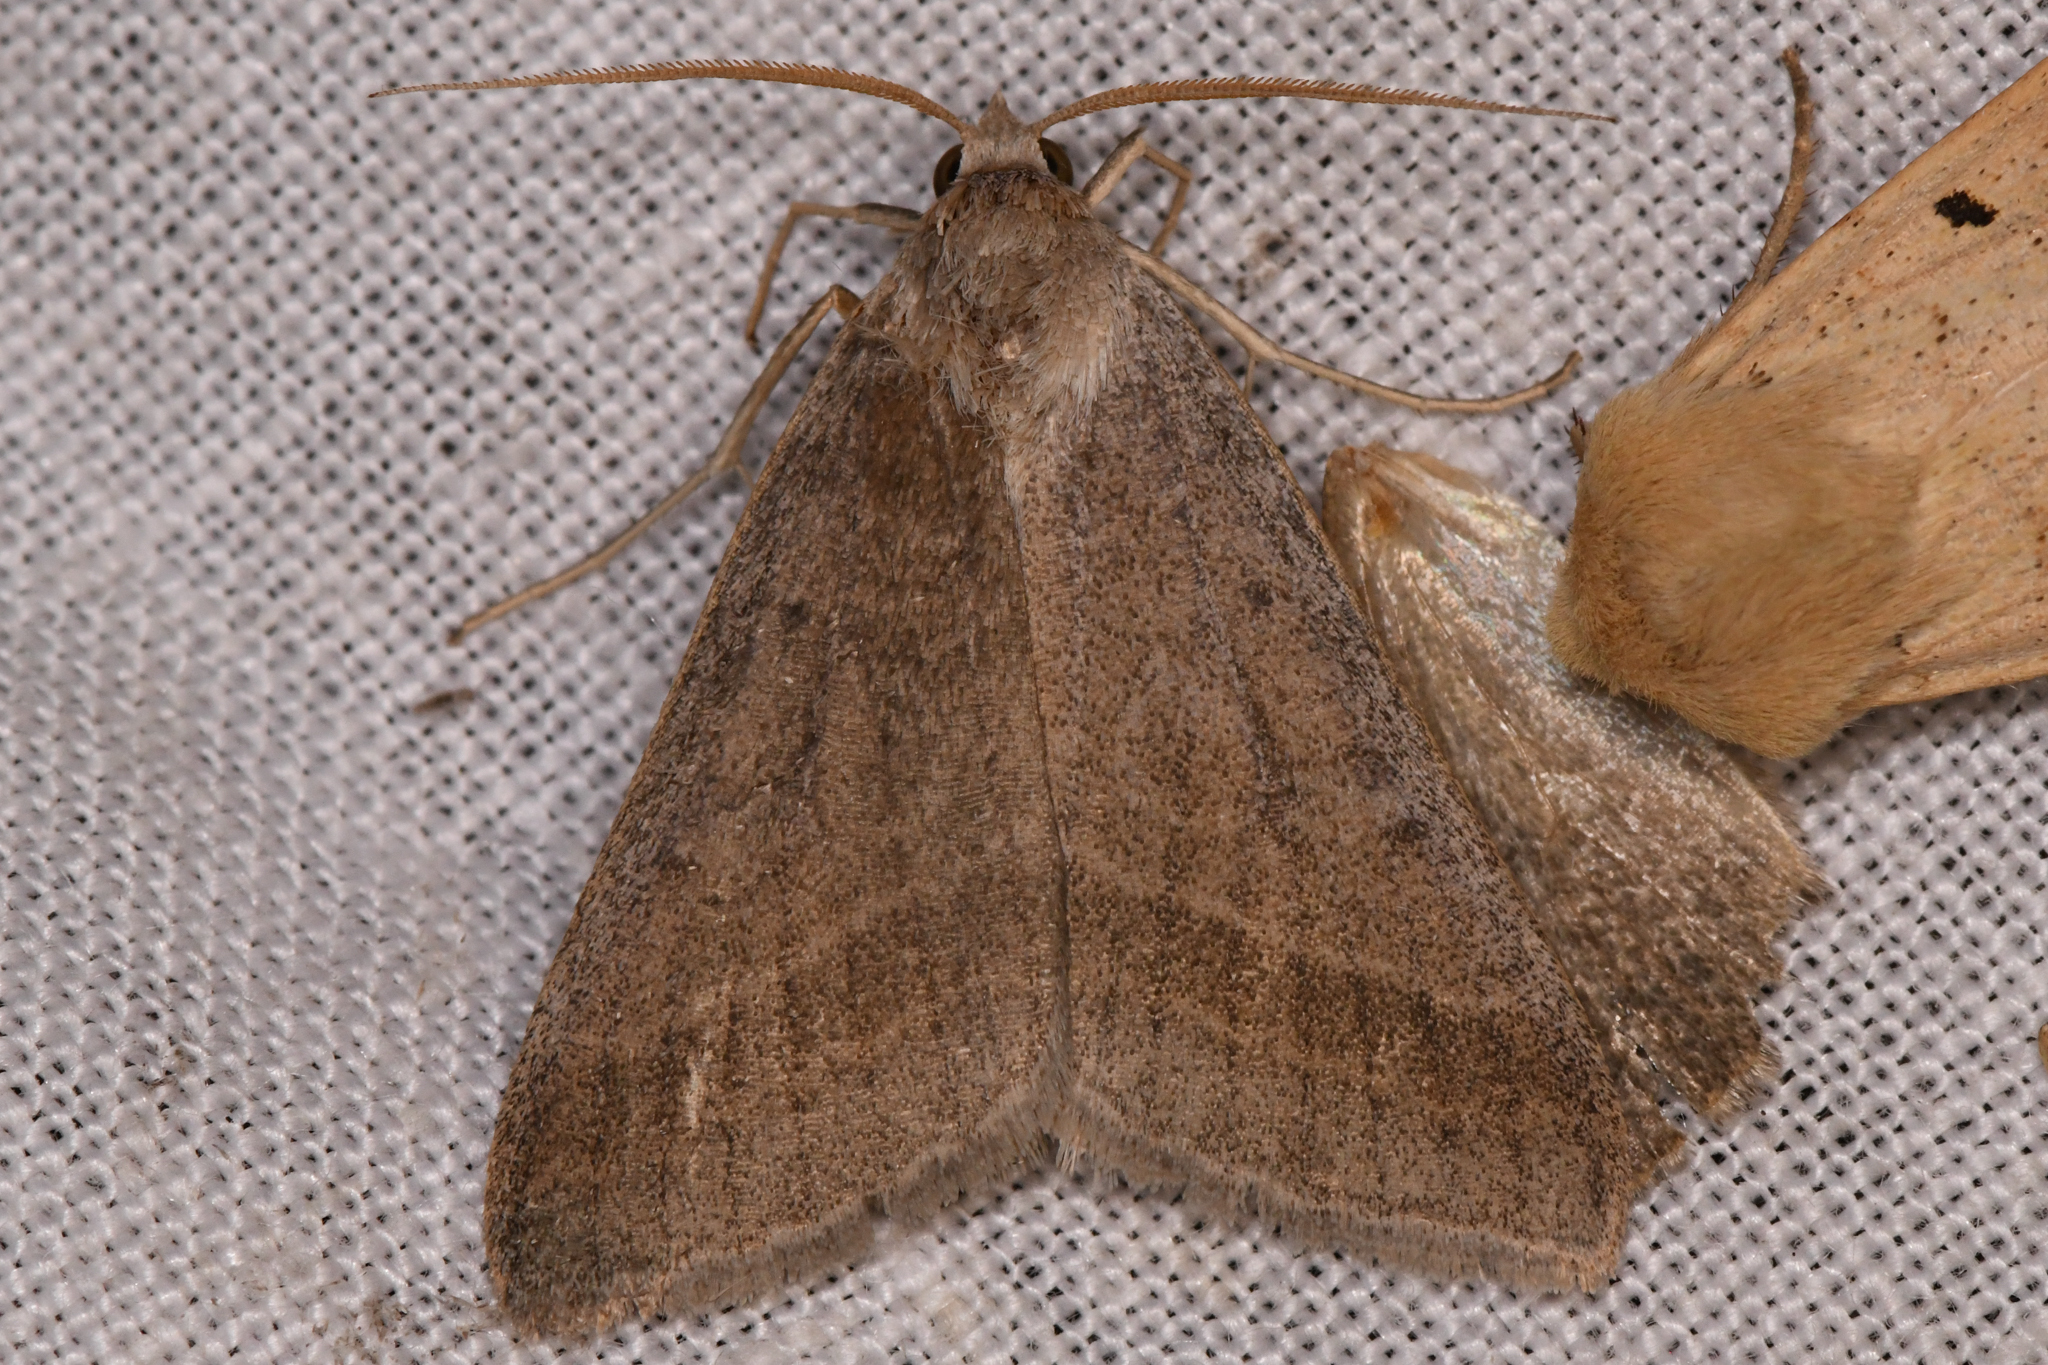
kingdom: Animalia
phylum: Arthropoda
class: Insecta
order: Lepidoptera
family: Erebidae
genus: Caenurgia
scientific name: Caenurgia togataria
